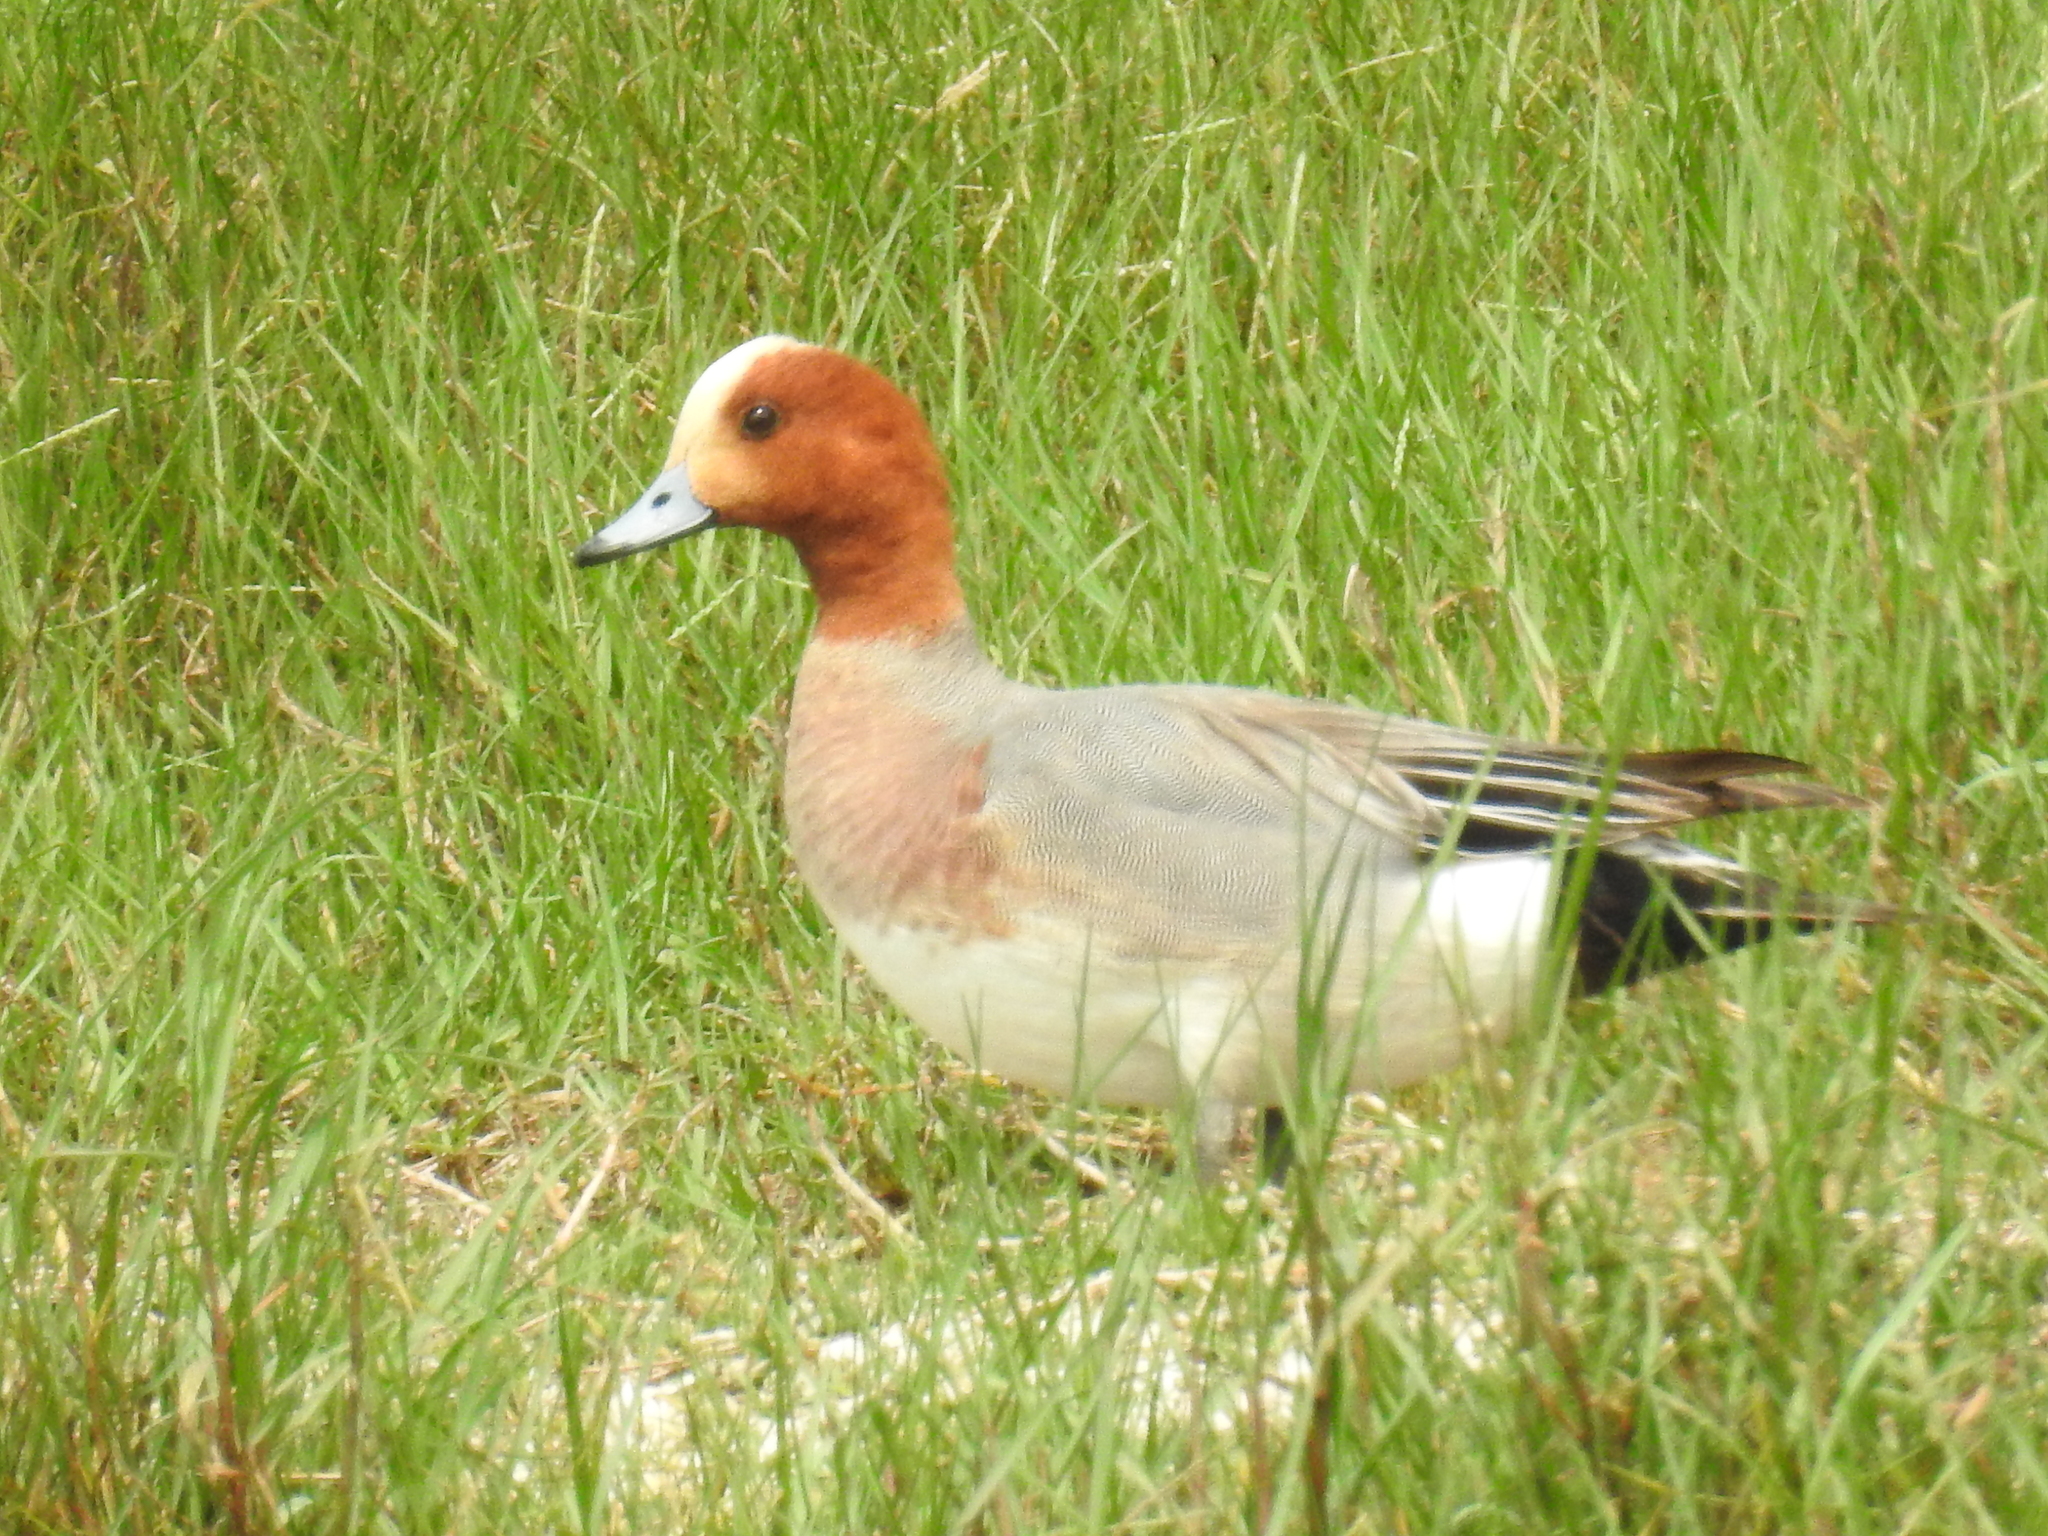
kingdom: Animalia
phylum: Chordata
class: Aves
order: Anseriformes
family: Anatidae
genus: Mareca
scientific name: Mareca penelope
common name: Eurasian wigeon
